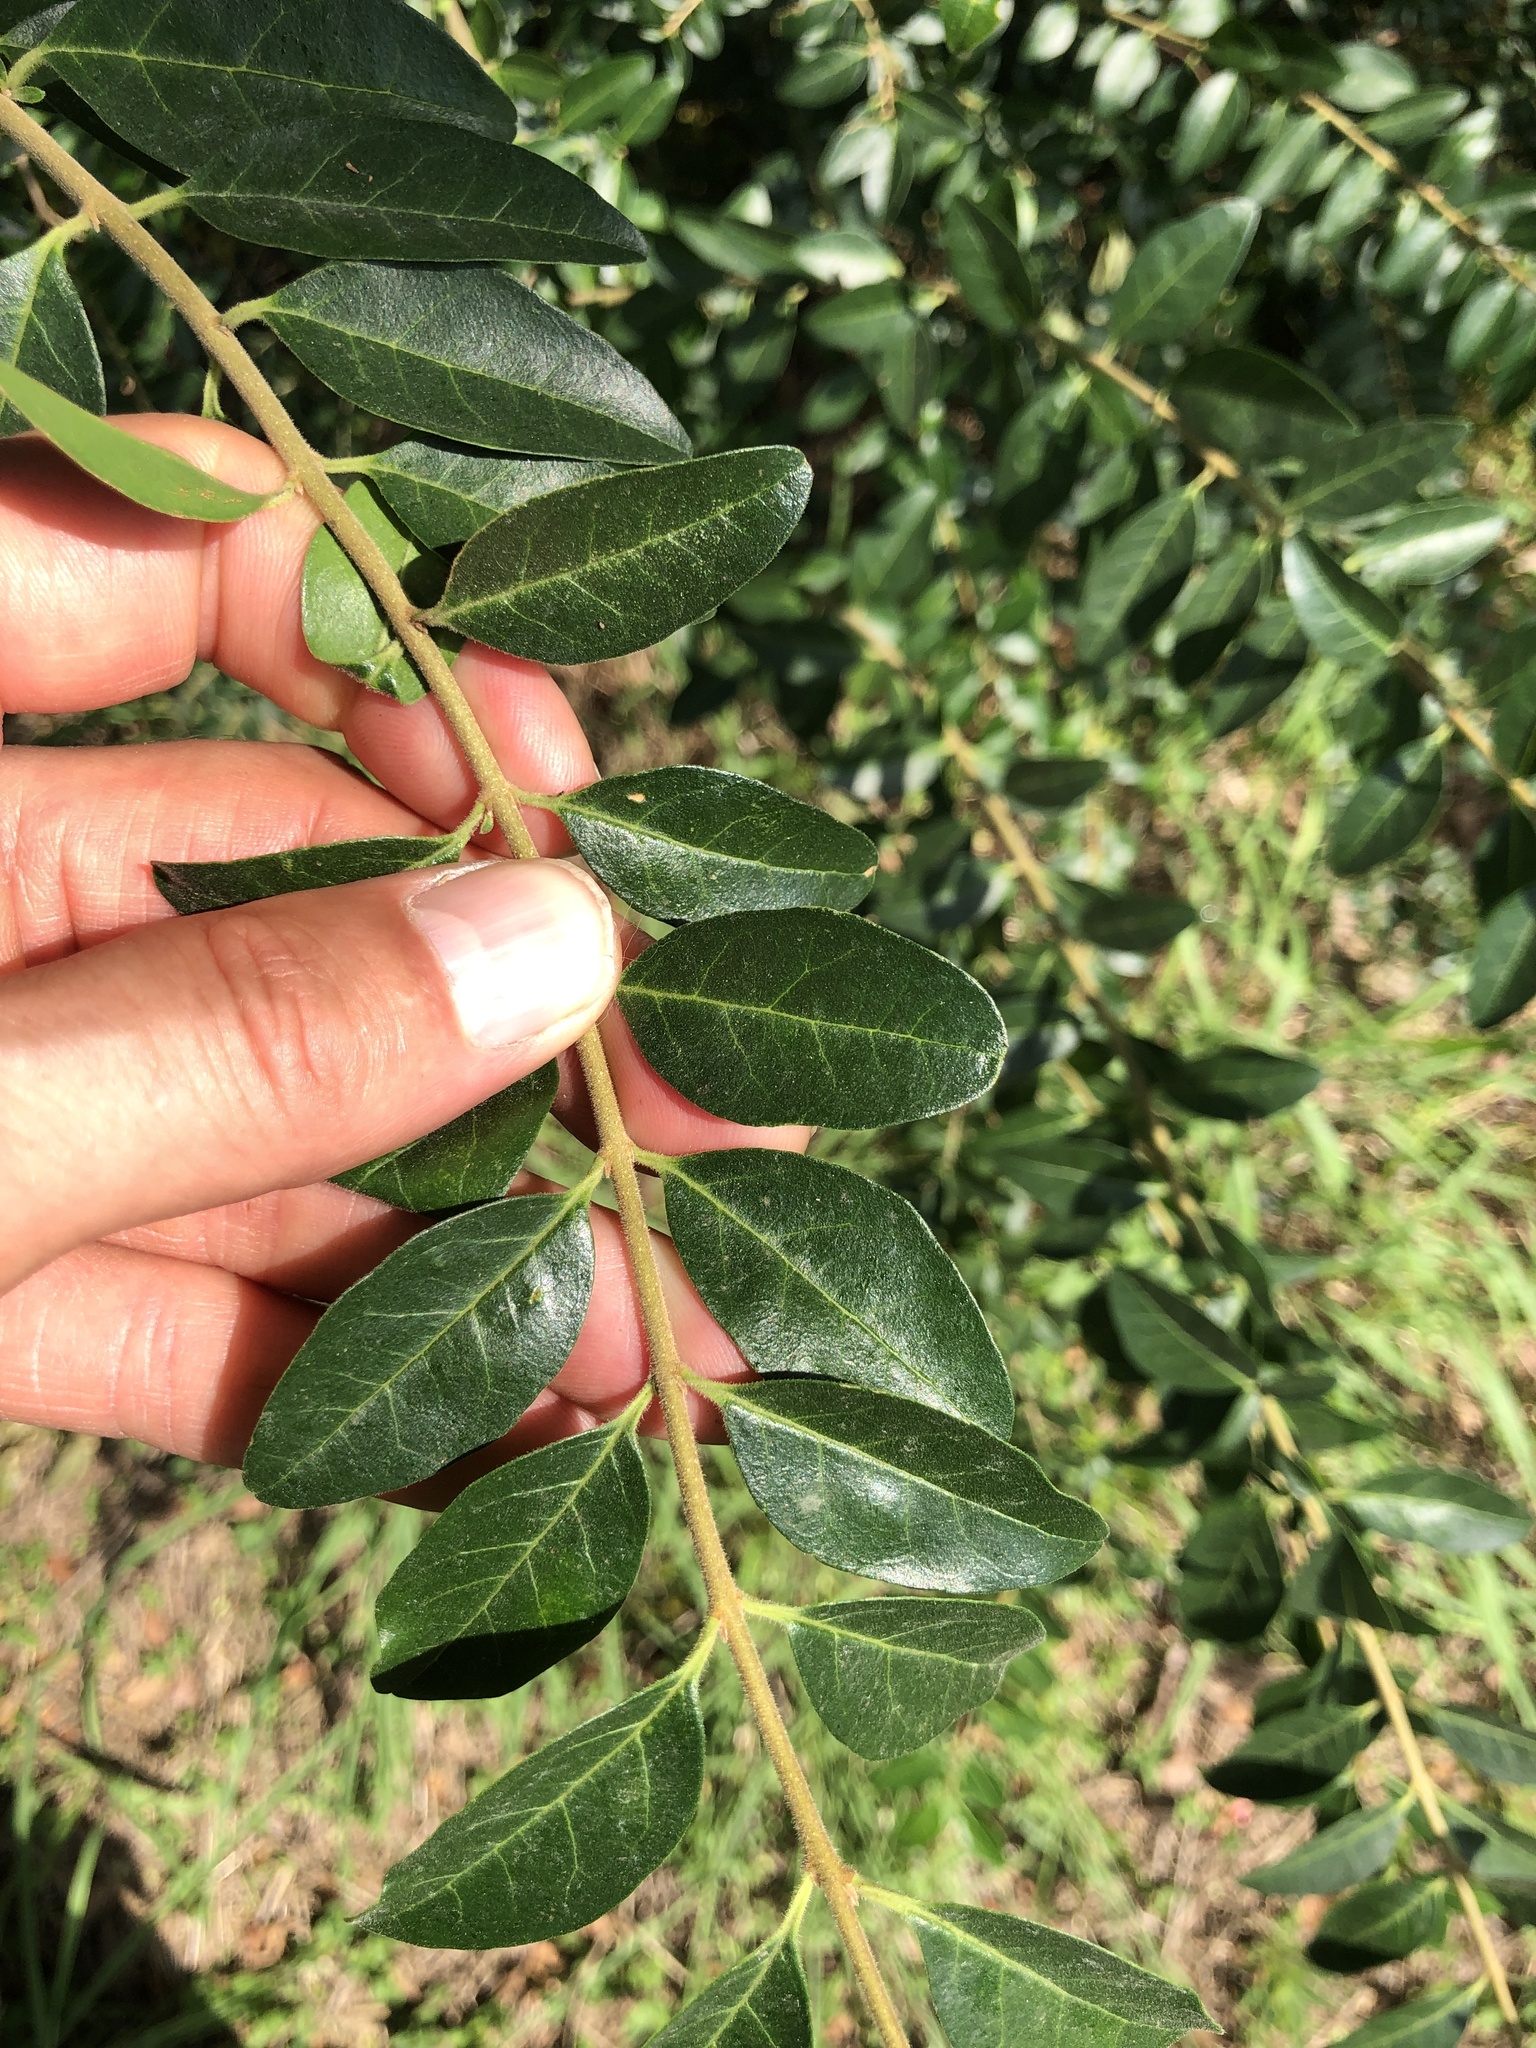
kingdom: Plantae
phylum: Tracheophyta
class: Magnoliopsida
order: Lamiales
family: Oleaceae
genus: Ligustrum
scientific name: Ligustrum sinense
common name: Chinese privet
